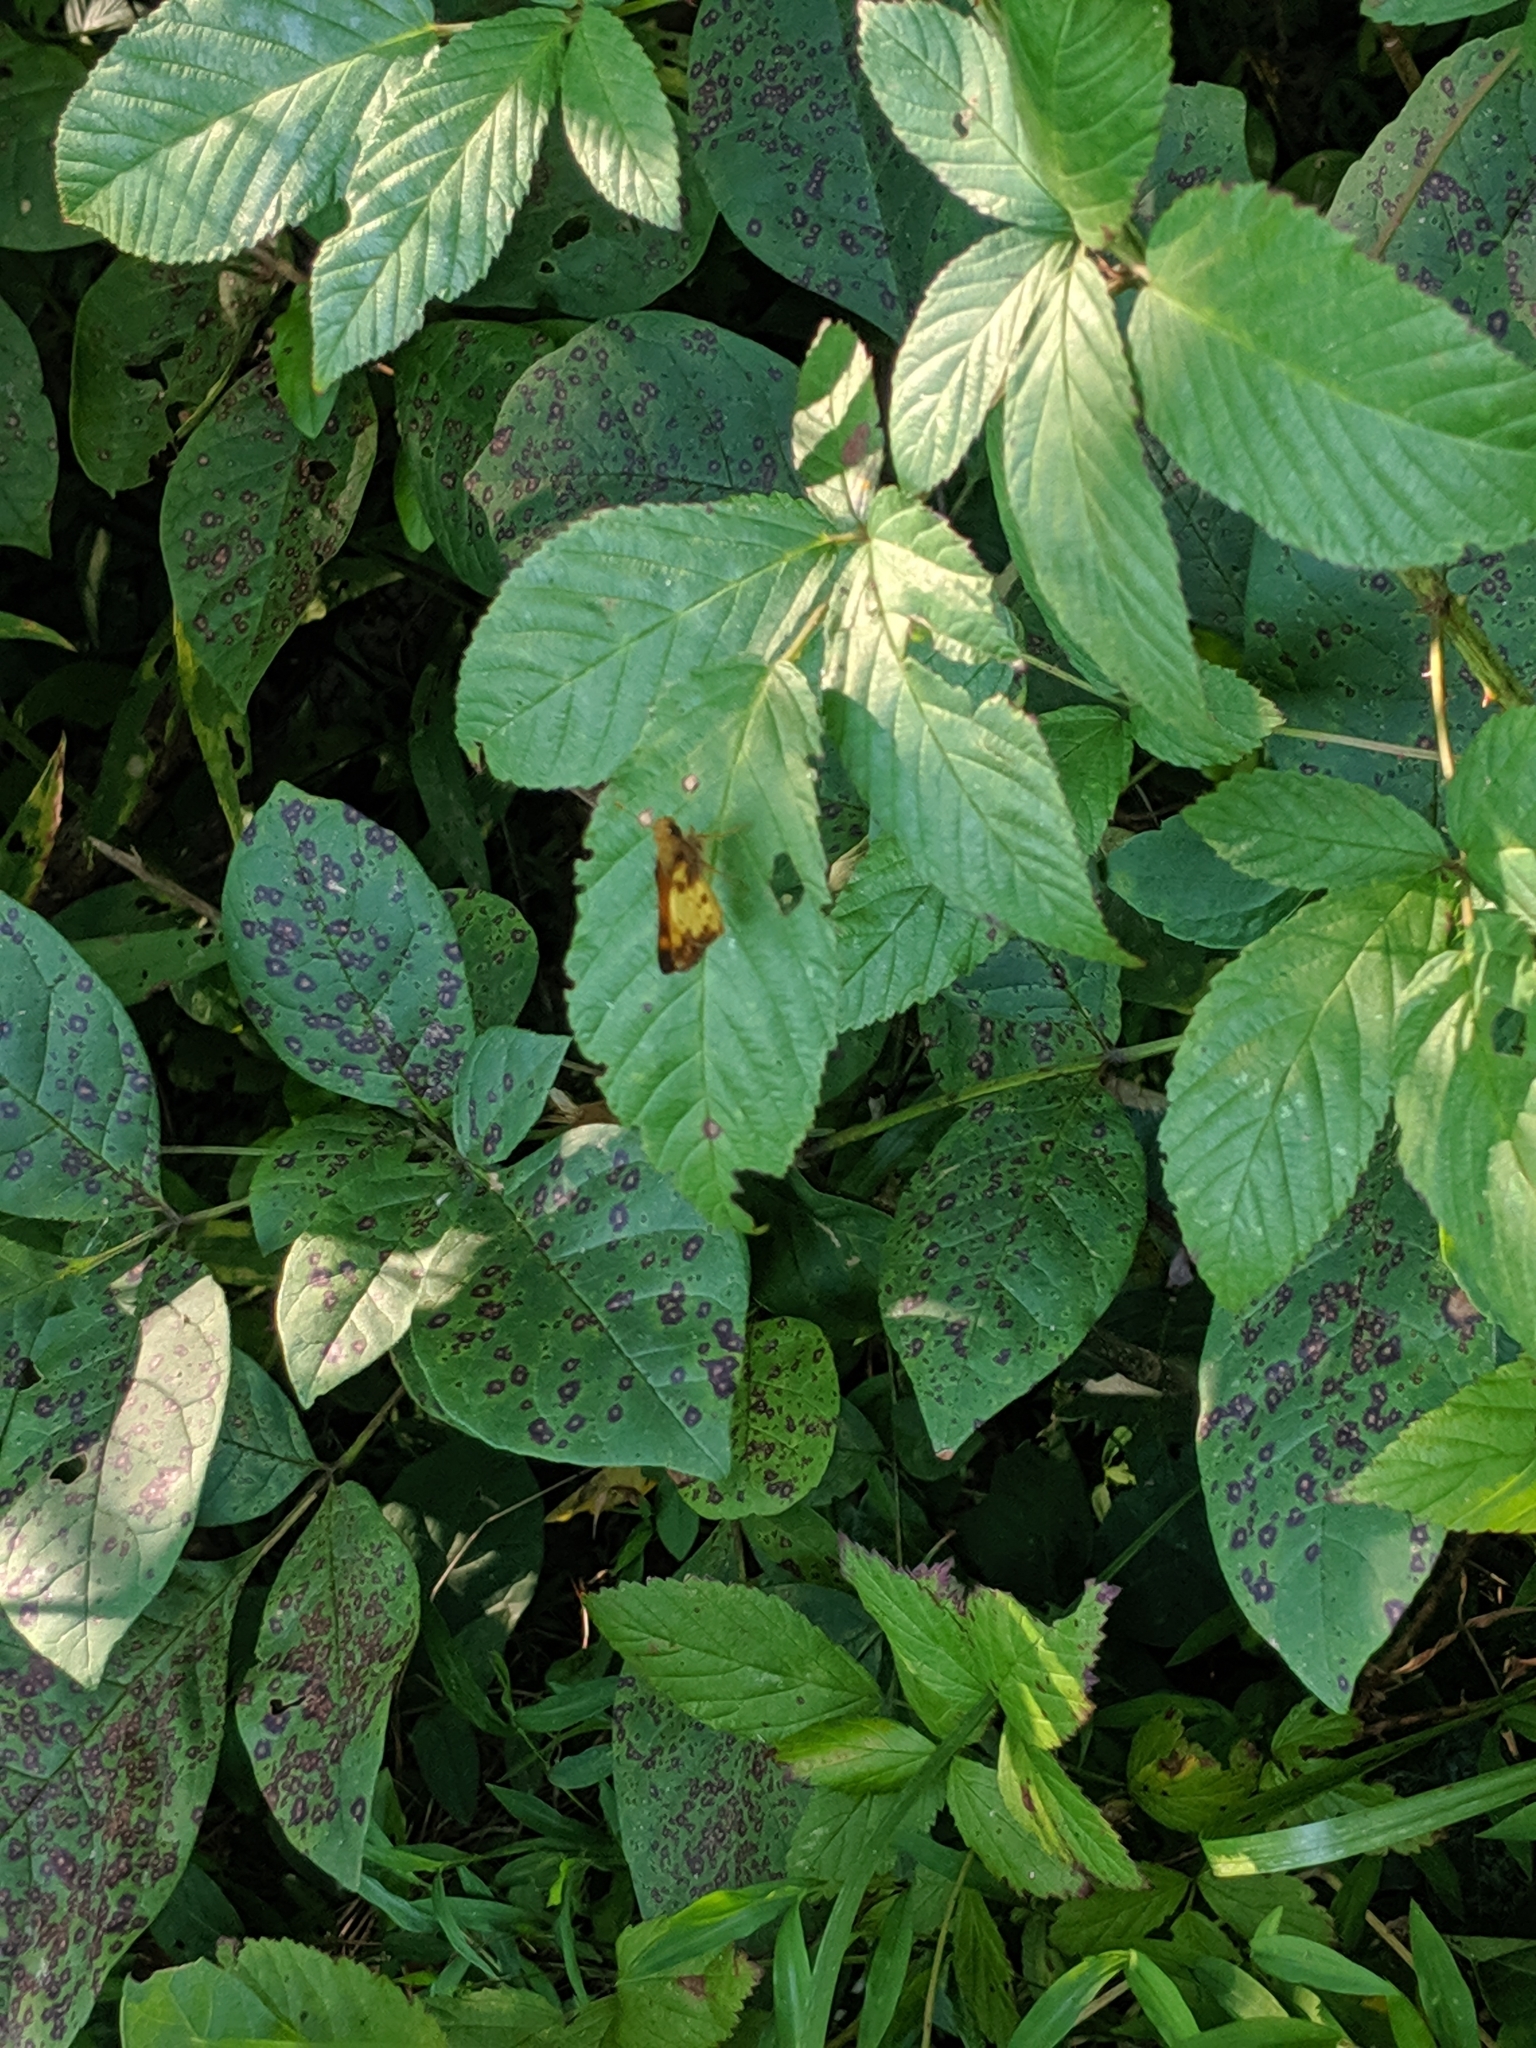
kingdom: Animalia
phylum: Arthropoda
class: Insecta
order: Lepidoptera
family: Hesperiidae
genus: Lon
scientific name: Lon zabulon
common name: Zabulon skipper
